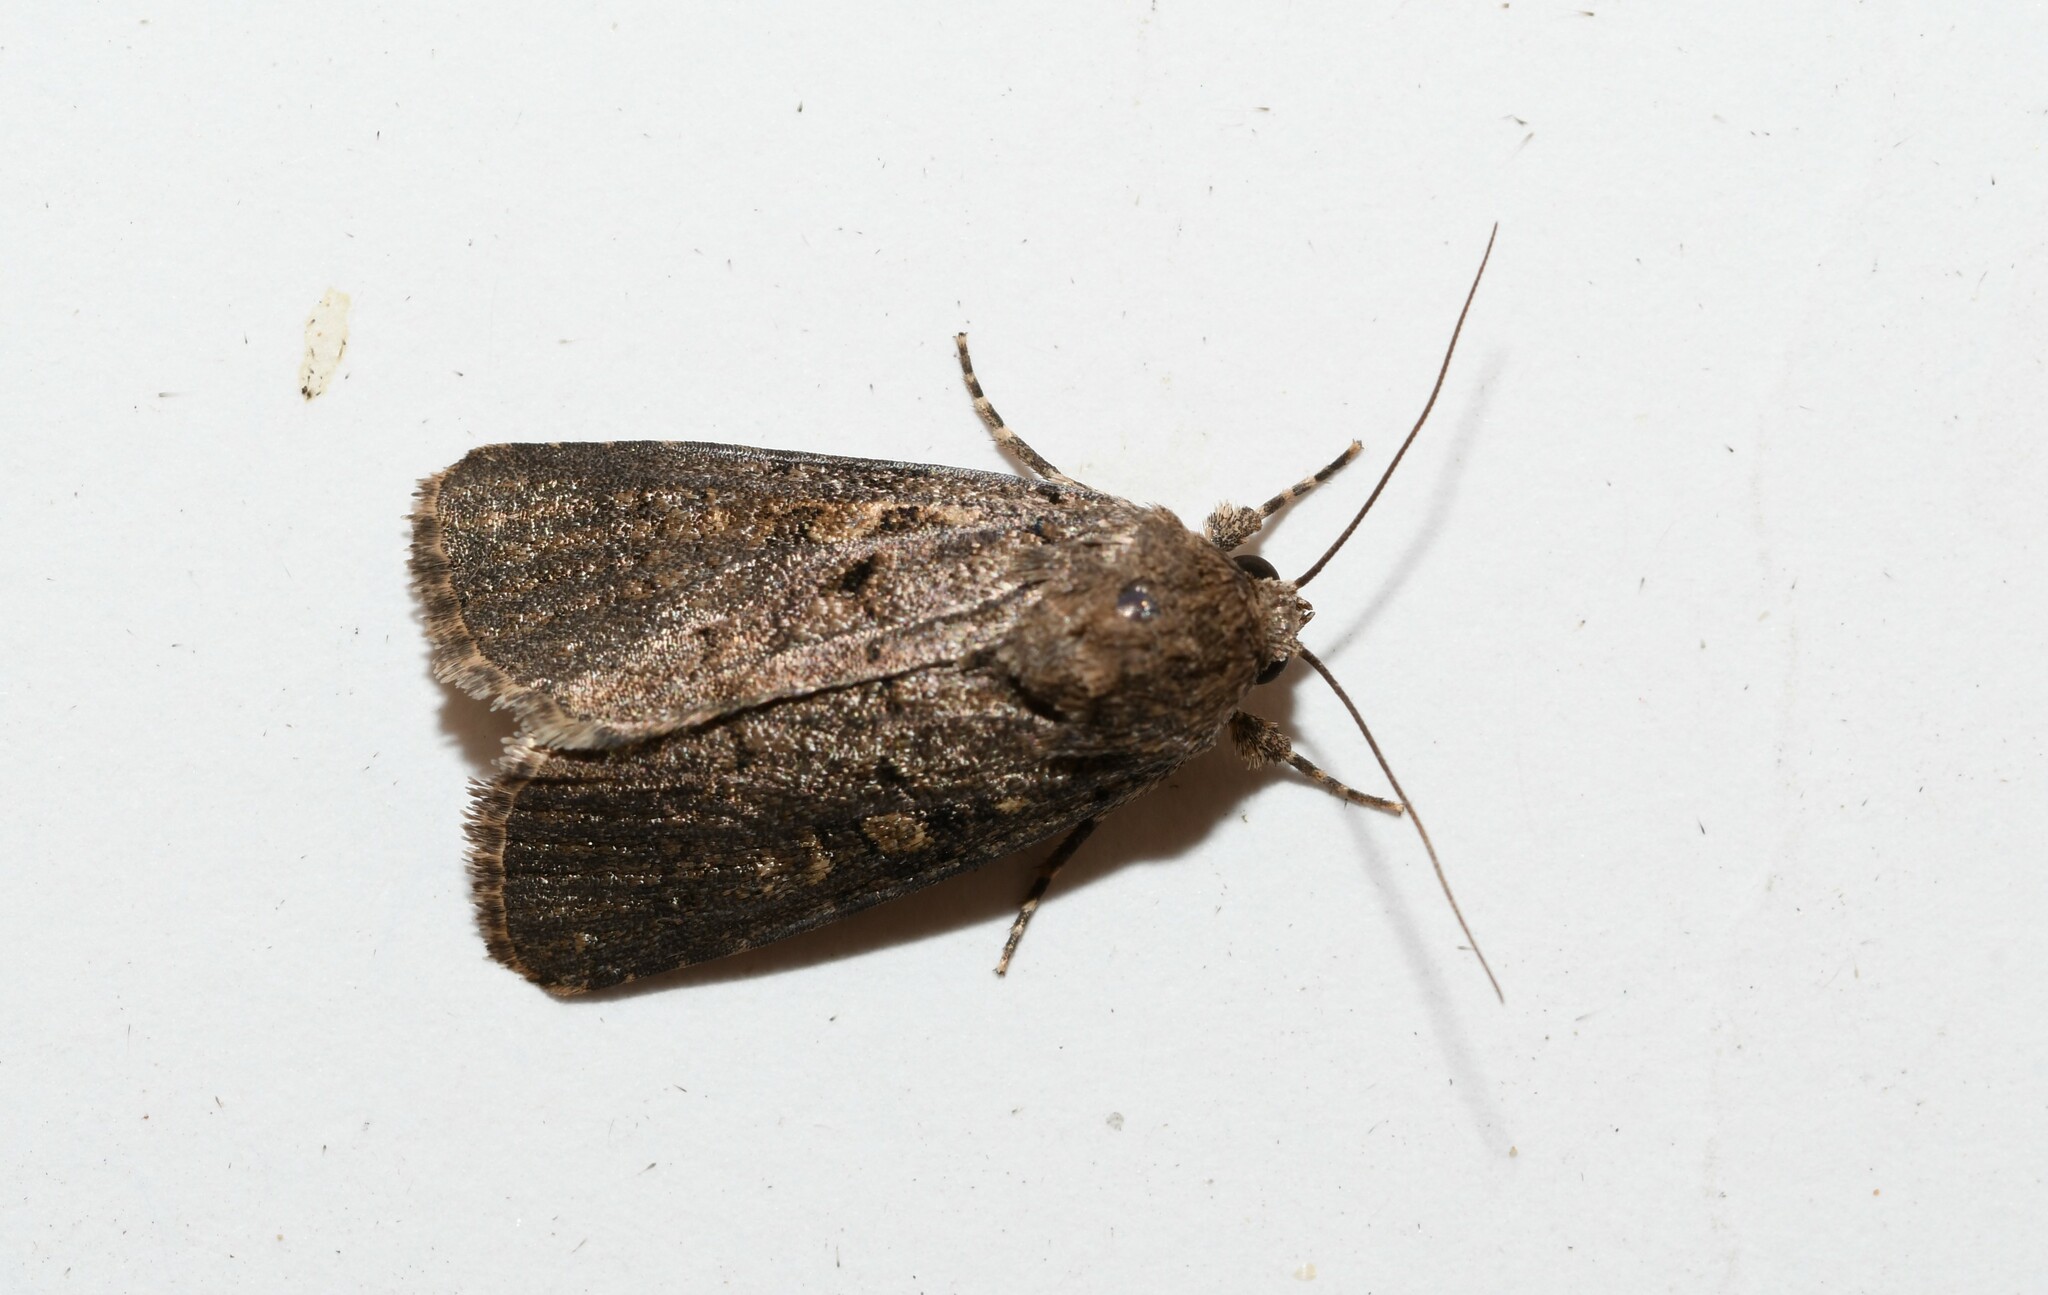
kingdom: Animalia
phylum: Arthropoda
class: Insecta
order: Lepidoptera
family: Noctuidae
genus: Spodoptera
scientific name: Spodoptera cilium
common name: Dark mottled willow
